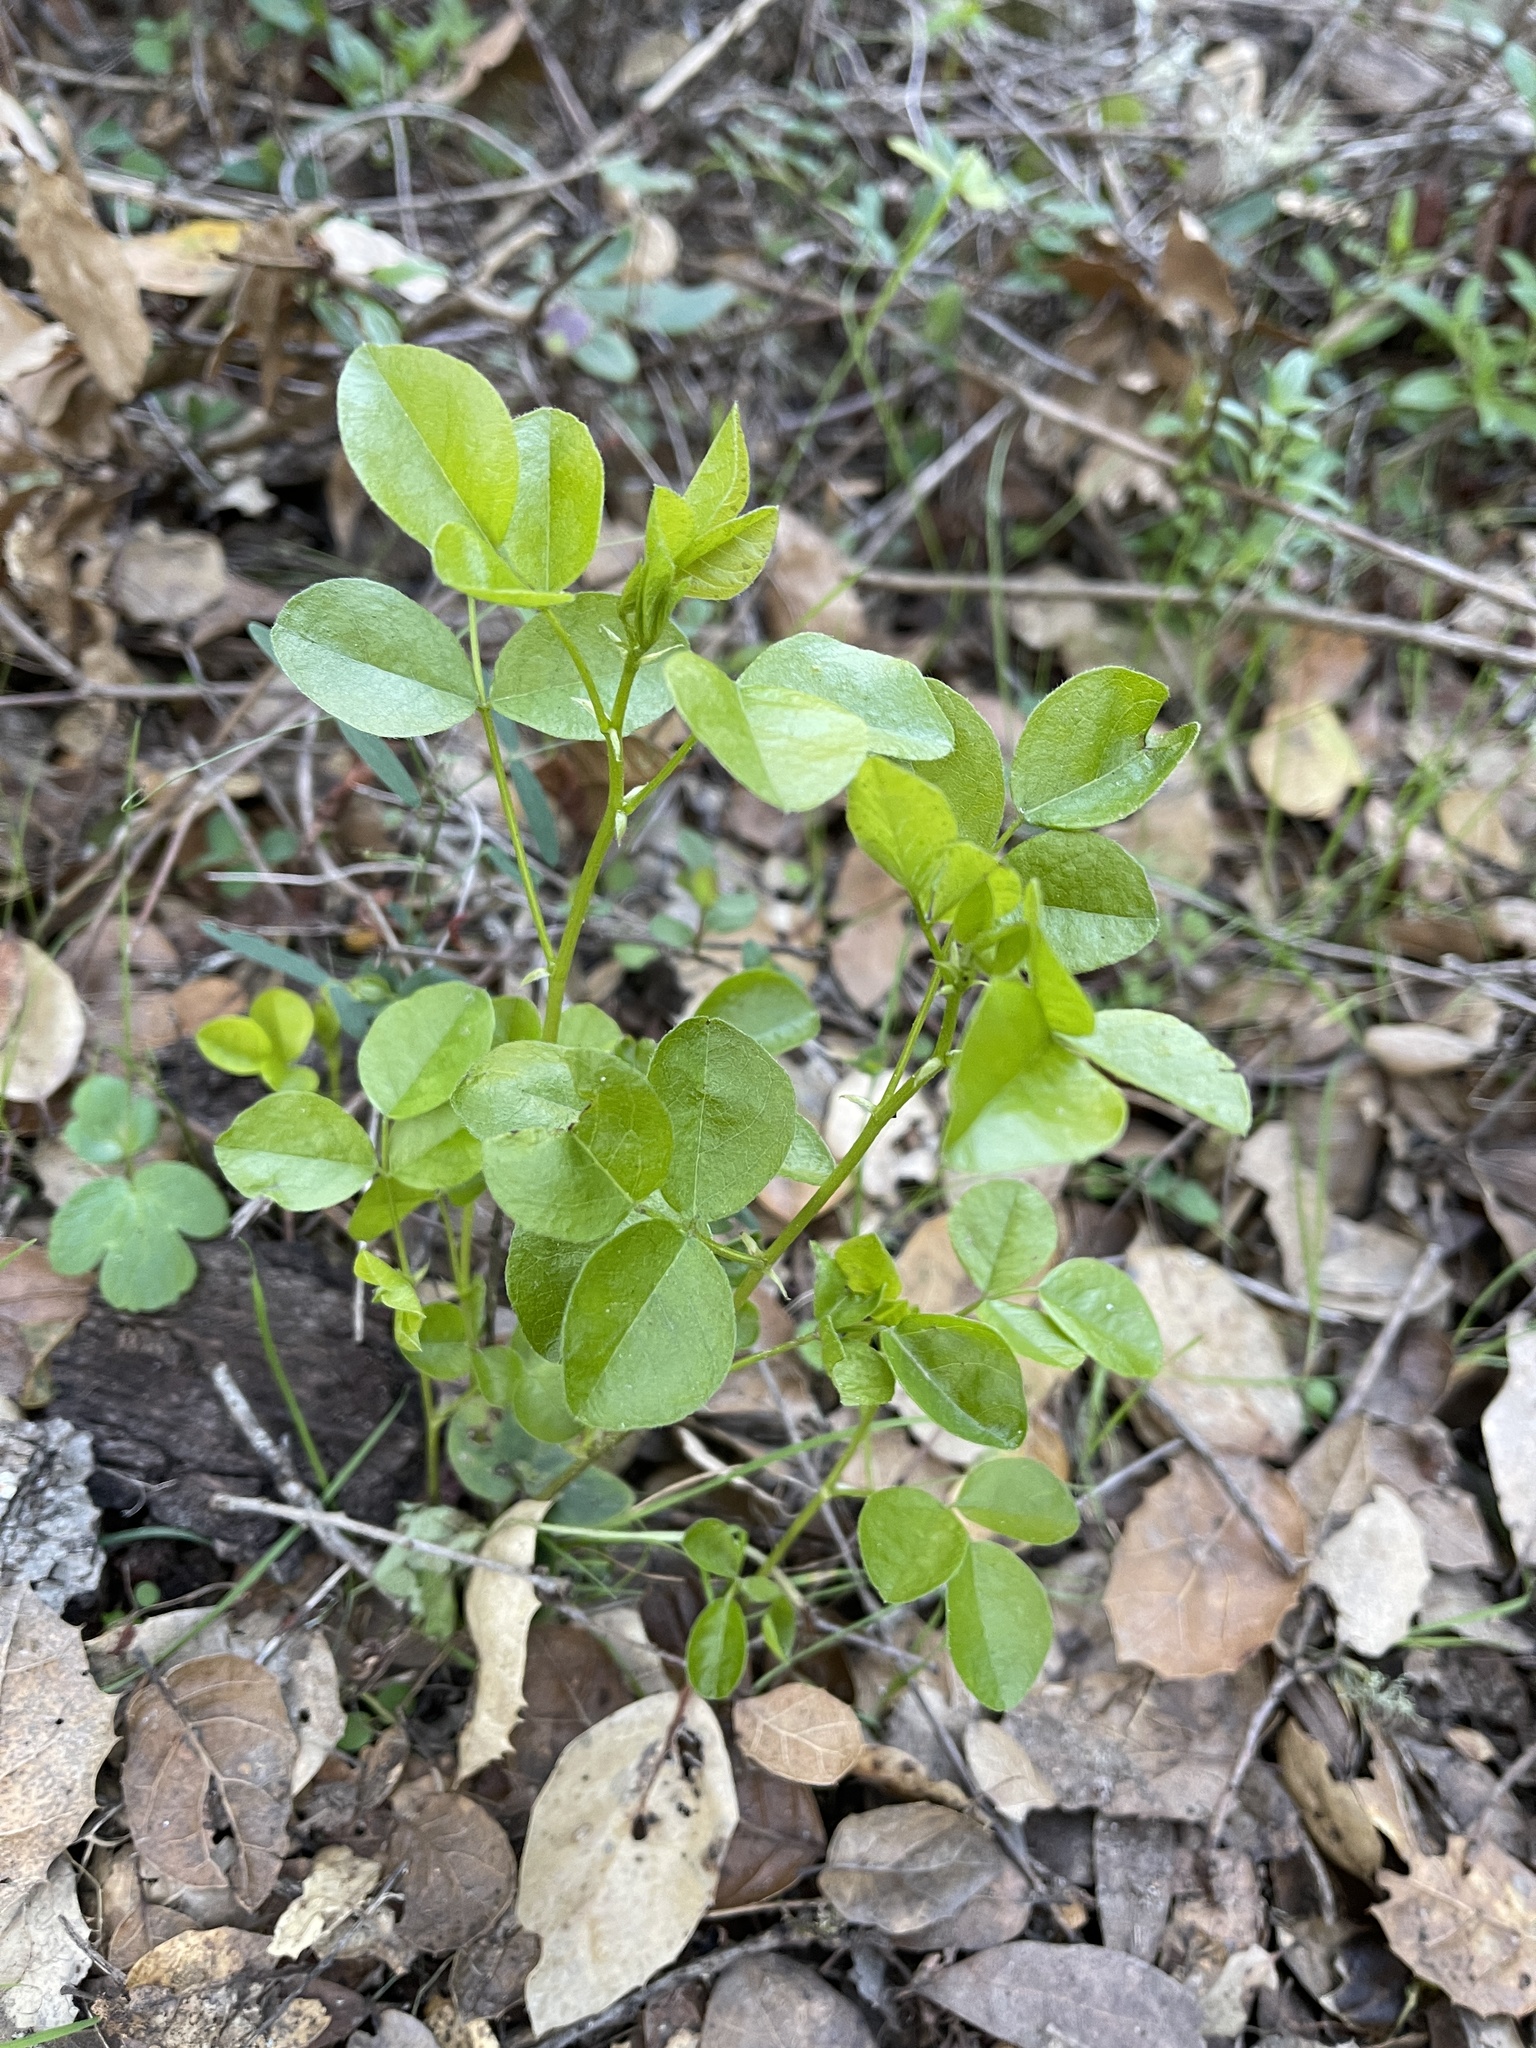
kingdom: Plantae
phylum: Tracheophyta
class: Magnoliopsida
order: Fabales
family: Fabaceae
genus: Rupertia
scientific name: Rupertia physodes
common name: California-tea
